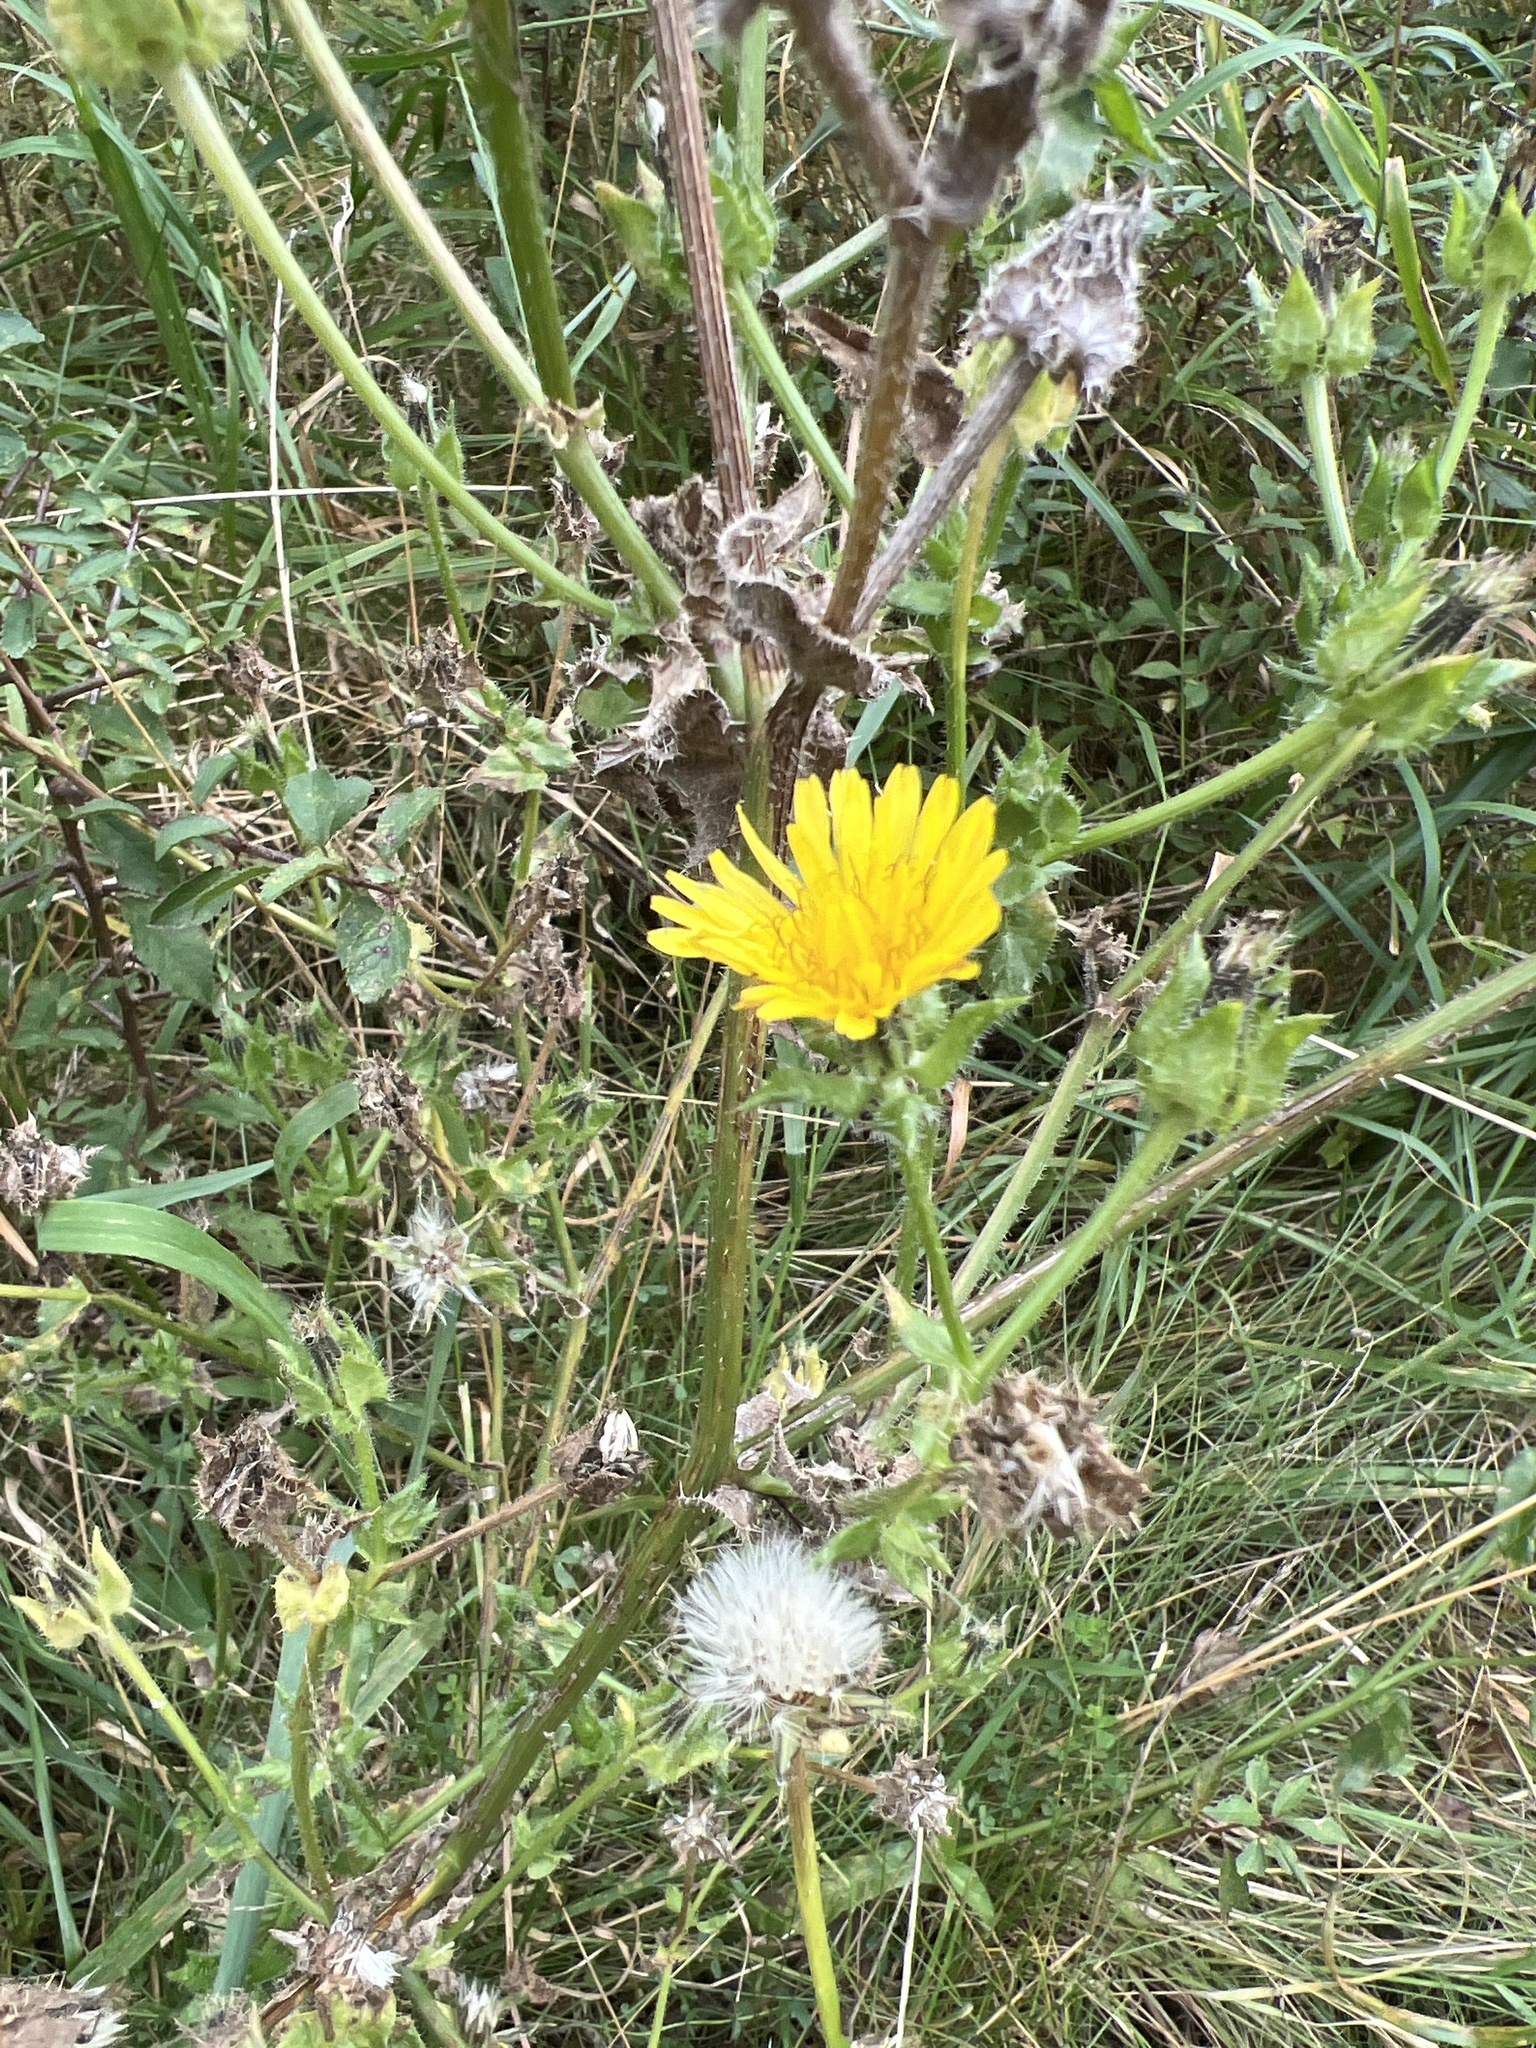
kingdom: Plantae
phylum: Tracheophyta
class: Magnoliopsida
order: Asterales
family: Asteraceae
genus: Helminthotheca
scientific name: Helminthotheca echioides
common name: Ox-tongue
